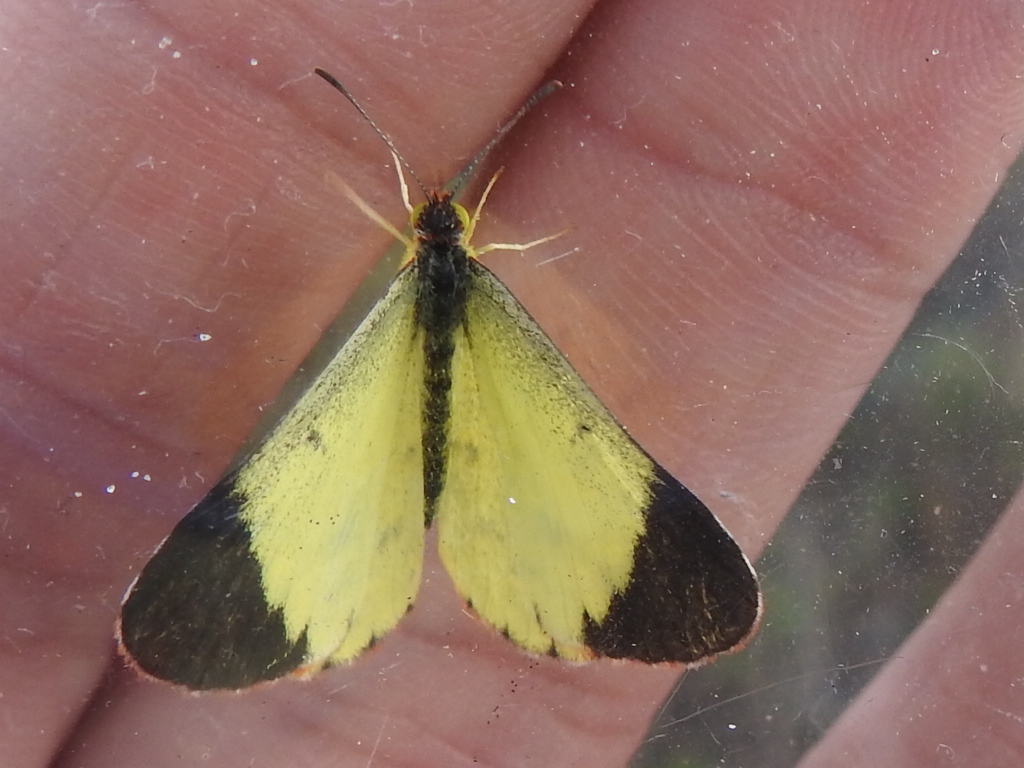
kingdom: Animalia
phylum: Arthropoda
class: Insecta
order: Lepidoptera
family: Pieridae
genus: Pyrisitia
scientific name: Pyrisitia lisa
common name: Little yellow
